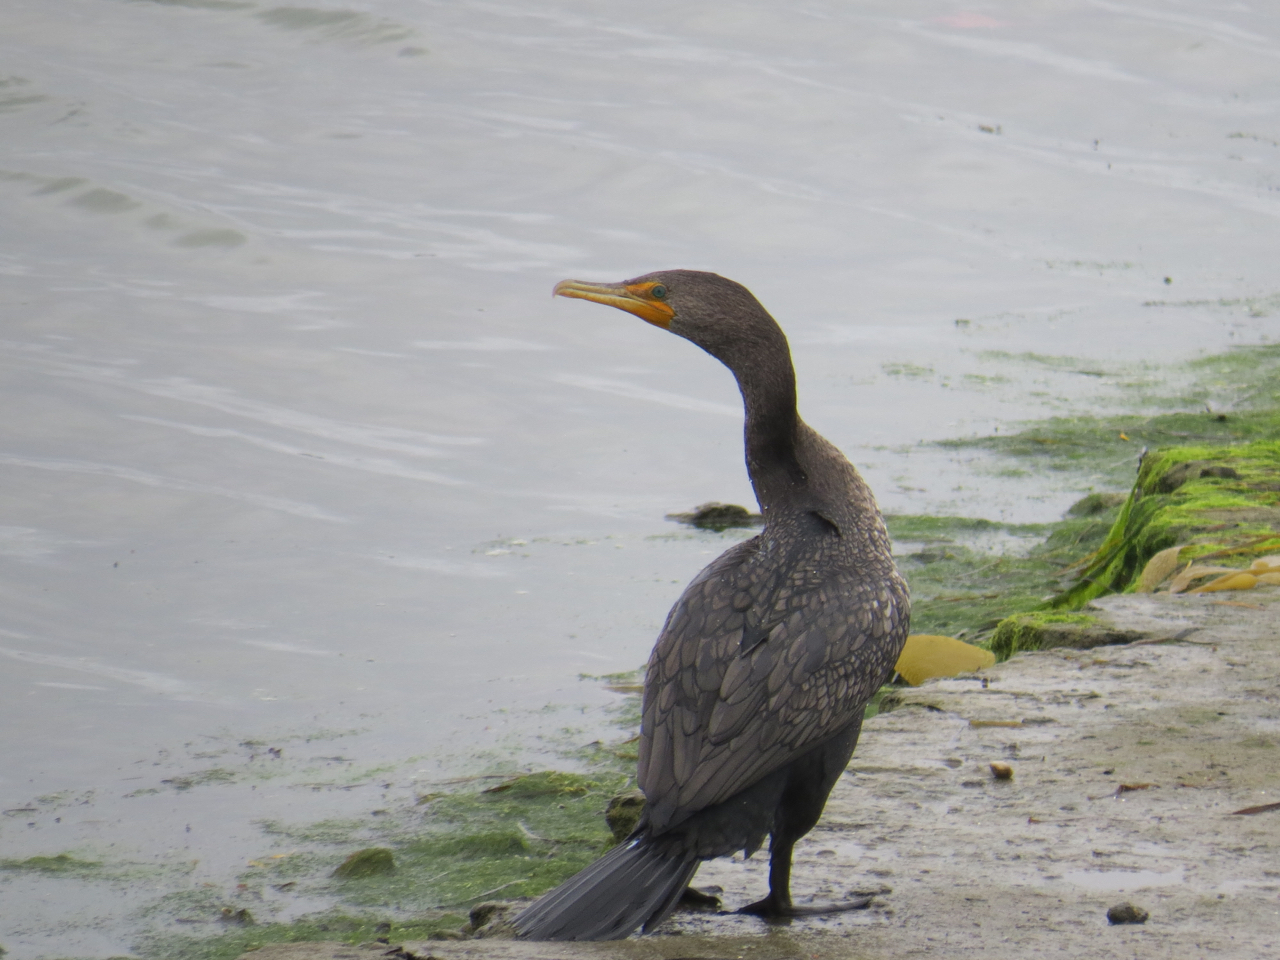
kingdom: Animalia
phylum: Chordata
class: Aves
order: Suliformes
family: Phalacrocoracidae
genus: Phalacrocorax
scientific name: Phalacrocorax auritus
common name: Double-crested cormorant
